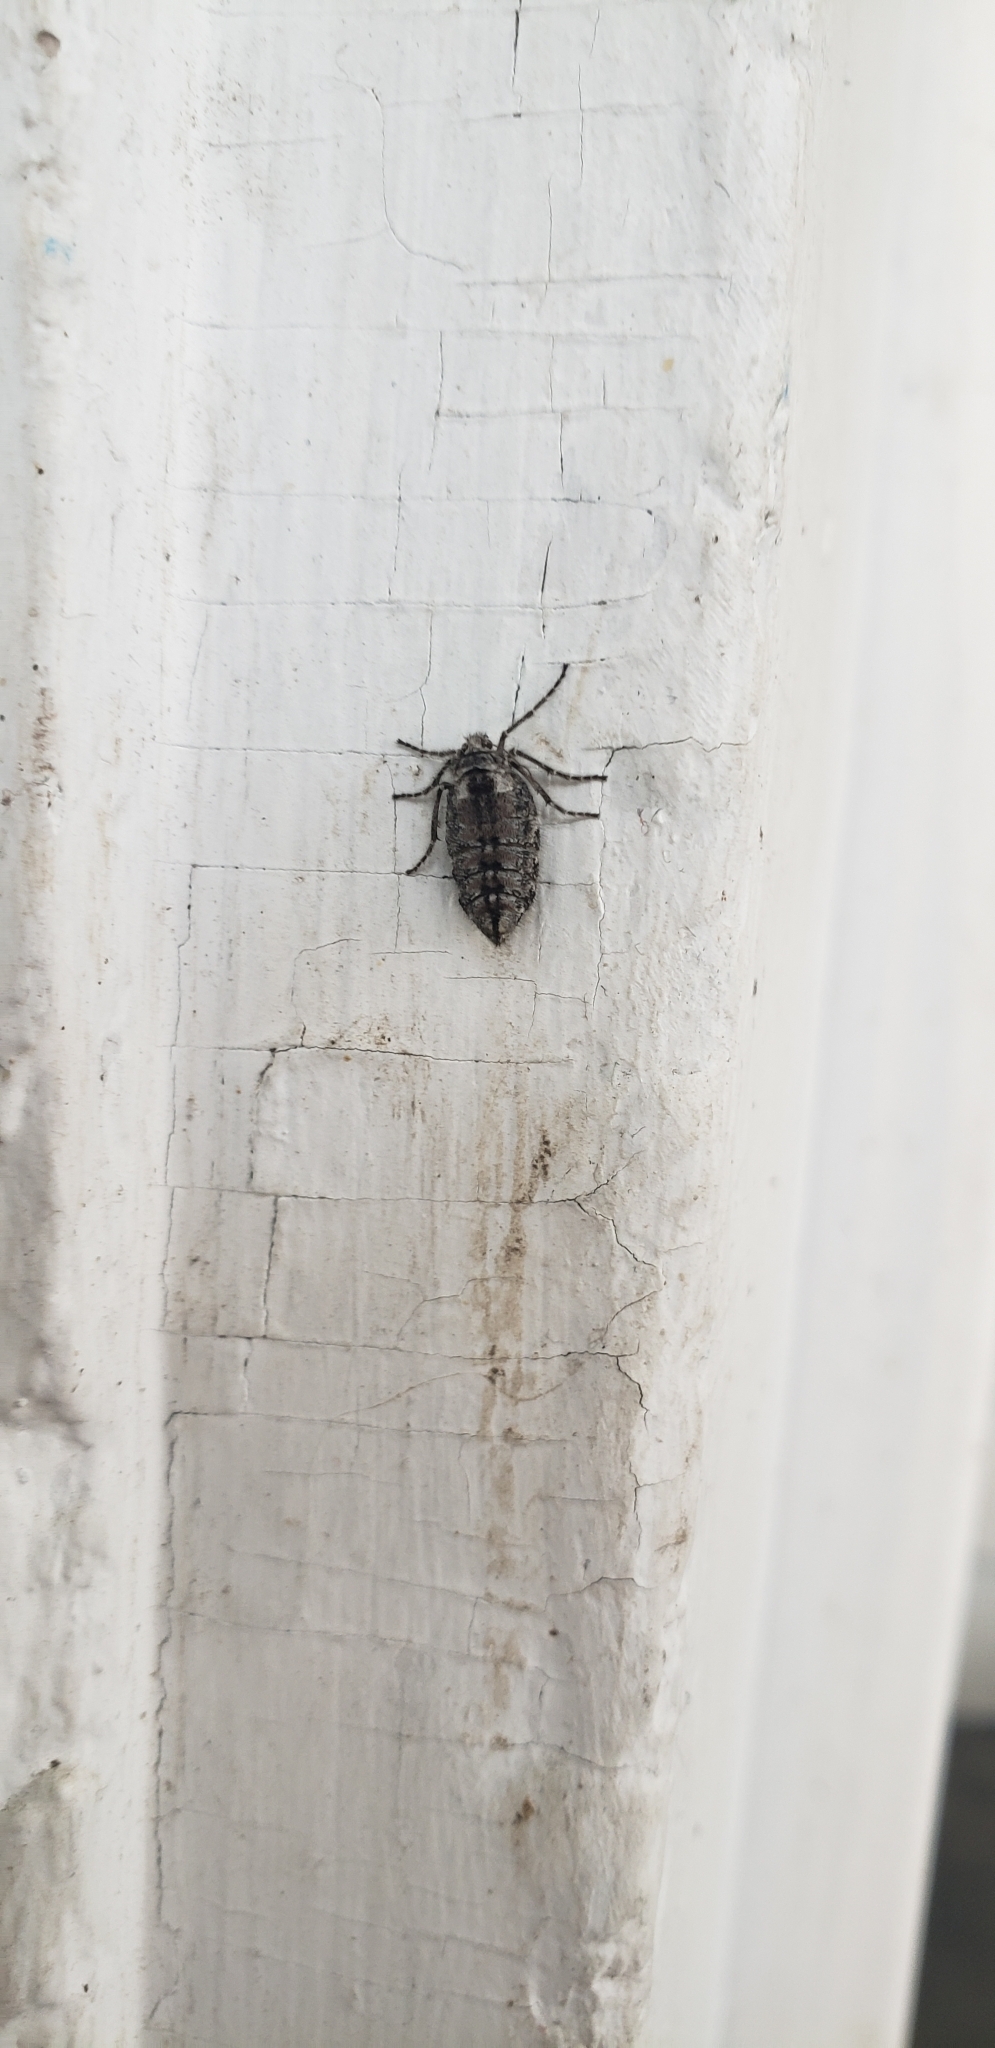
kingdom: Animalia
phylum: Arthropoda
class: Insecta
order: Lepidoptera
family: Geometridae
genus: Alsophila
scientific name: Alsophila pometaria
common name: Fall cankerworm
